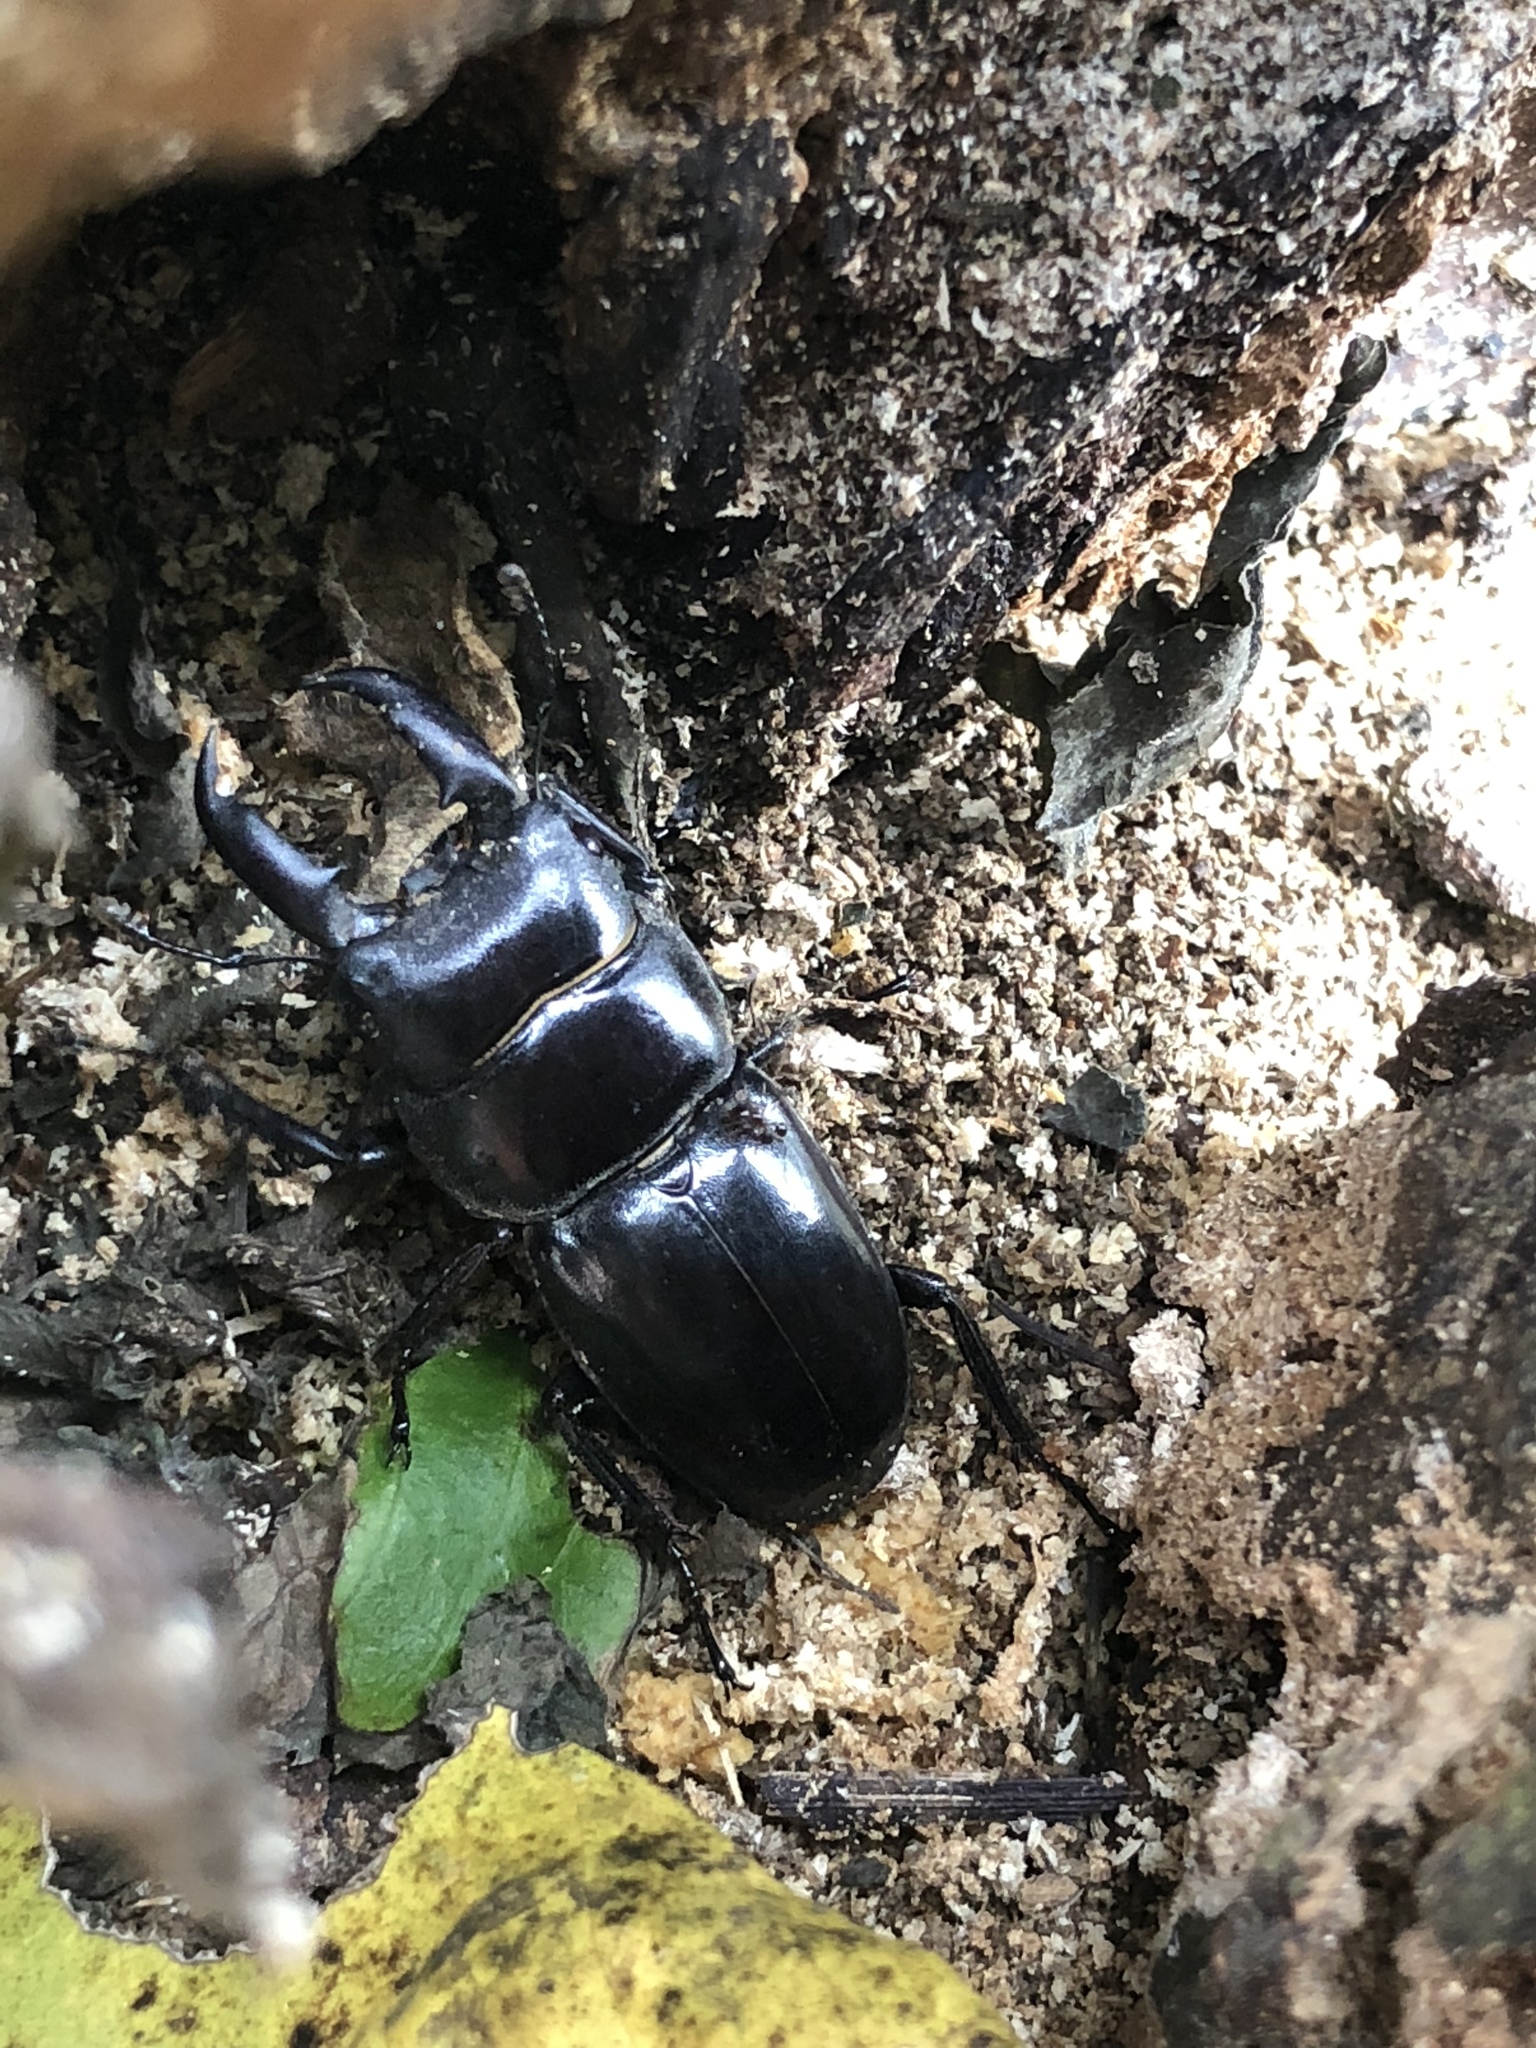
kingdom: Animalia
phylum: Arthropoda
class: Insecta
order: Coleoptera
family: Lucanidae
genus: Serrognathus
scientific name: Serrognathus titanus
